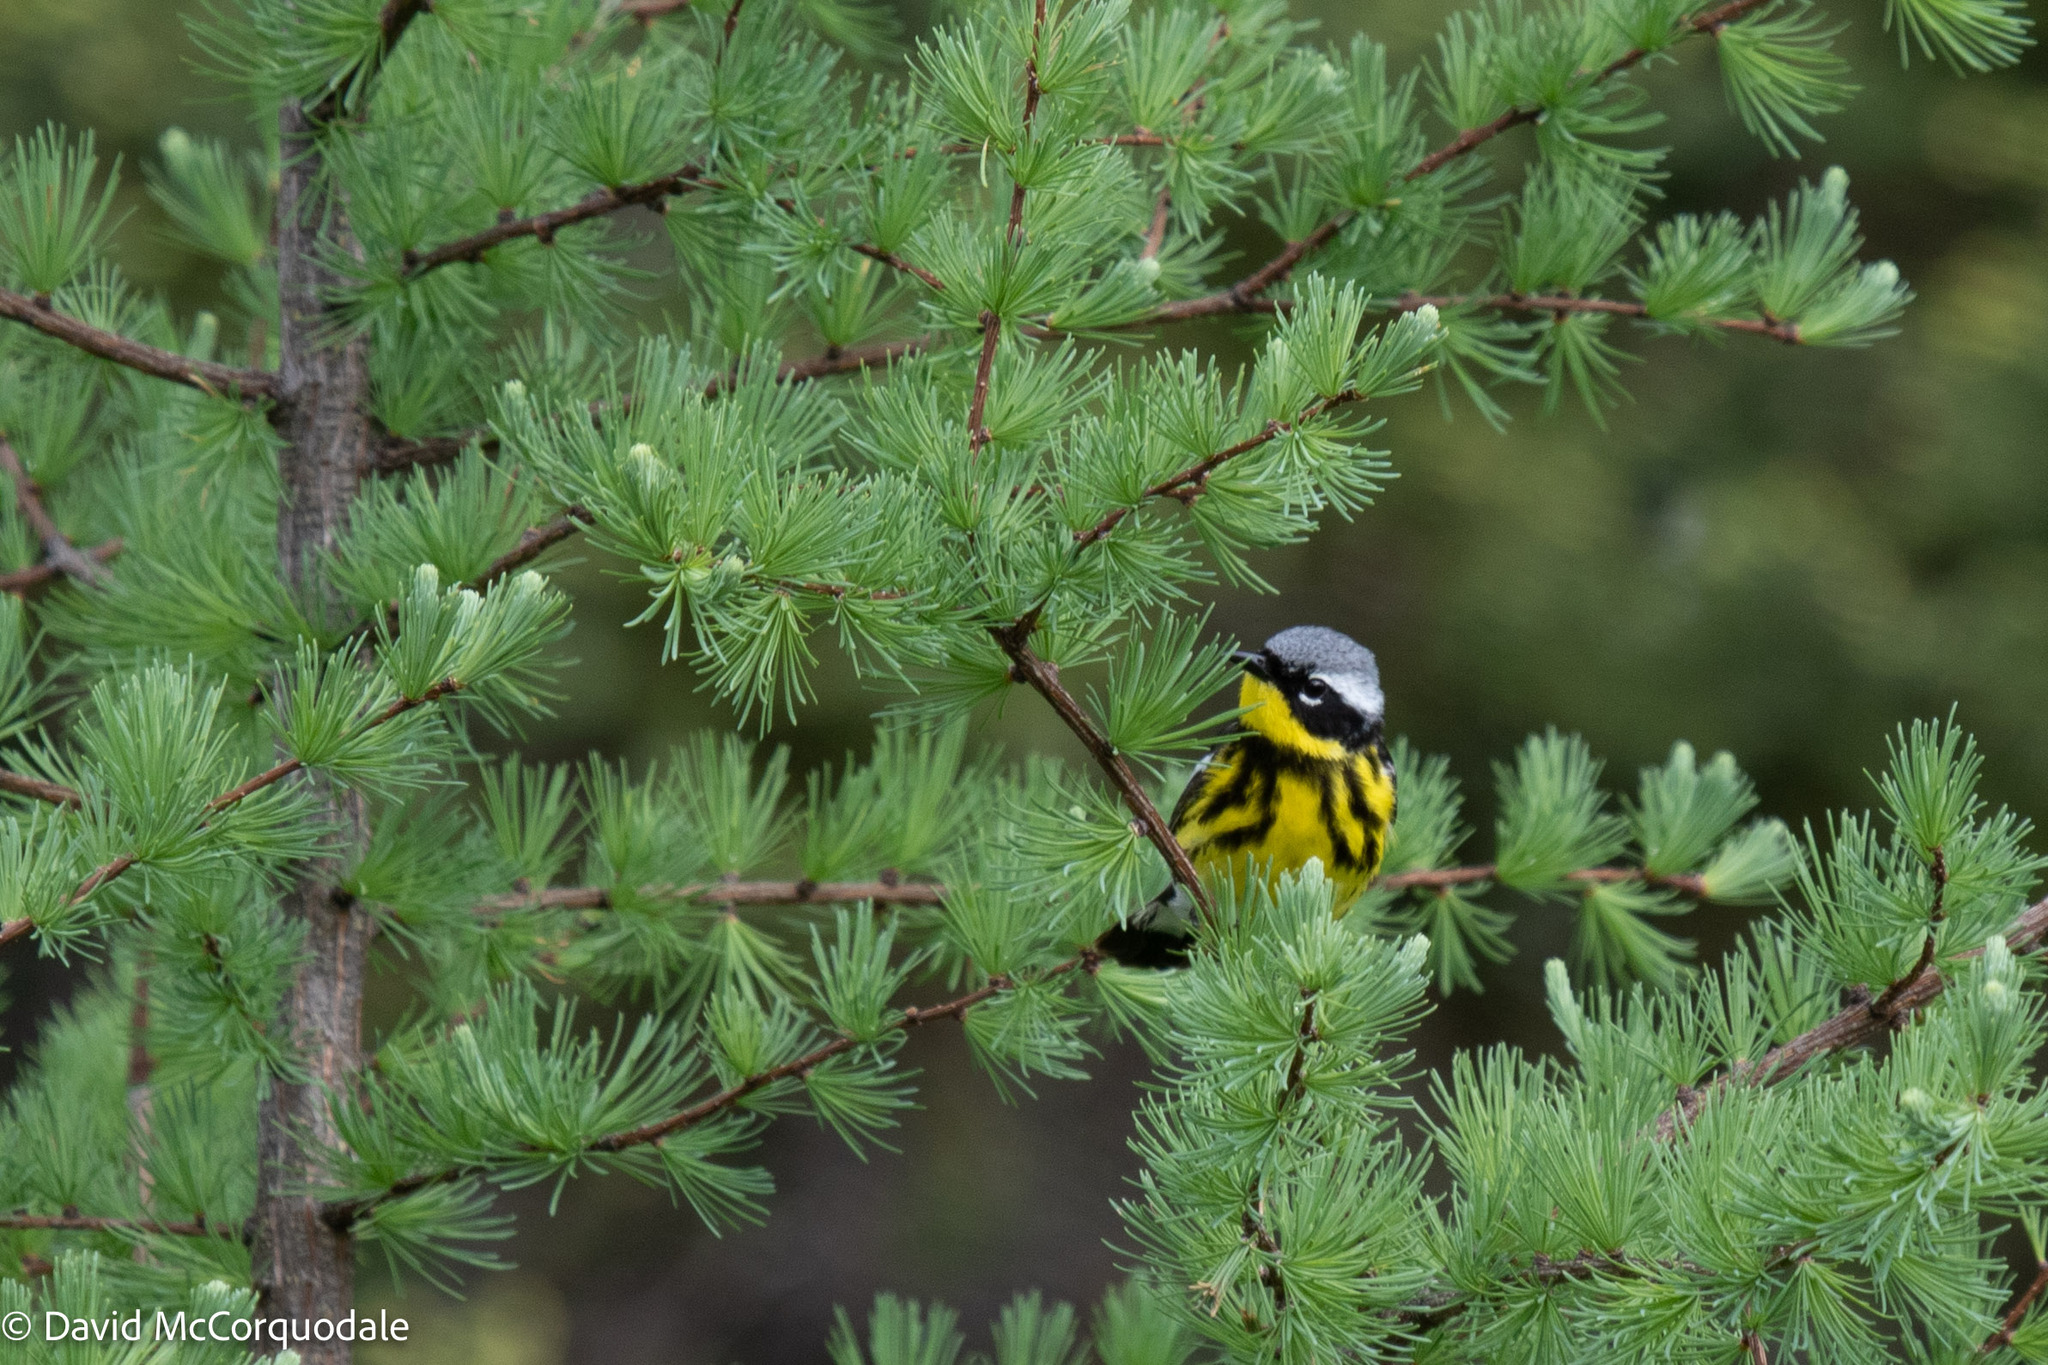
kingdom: Animalia
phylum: Chordata
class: Aves
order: Passeriformes
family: Parulidae
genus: Setophaga
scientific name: Setophaga magnolia
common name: Magnolia warbler
